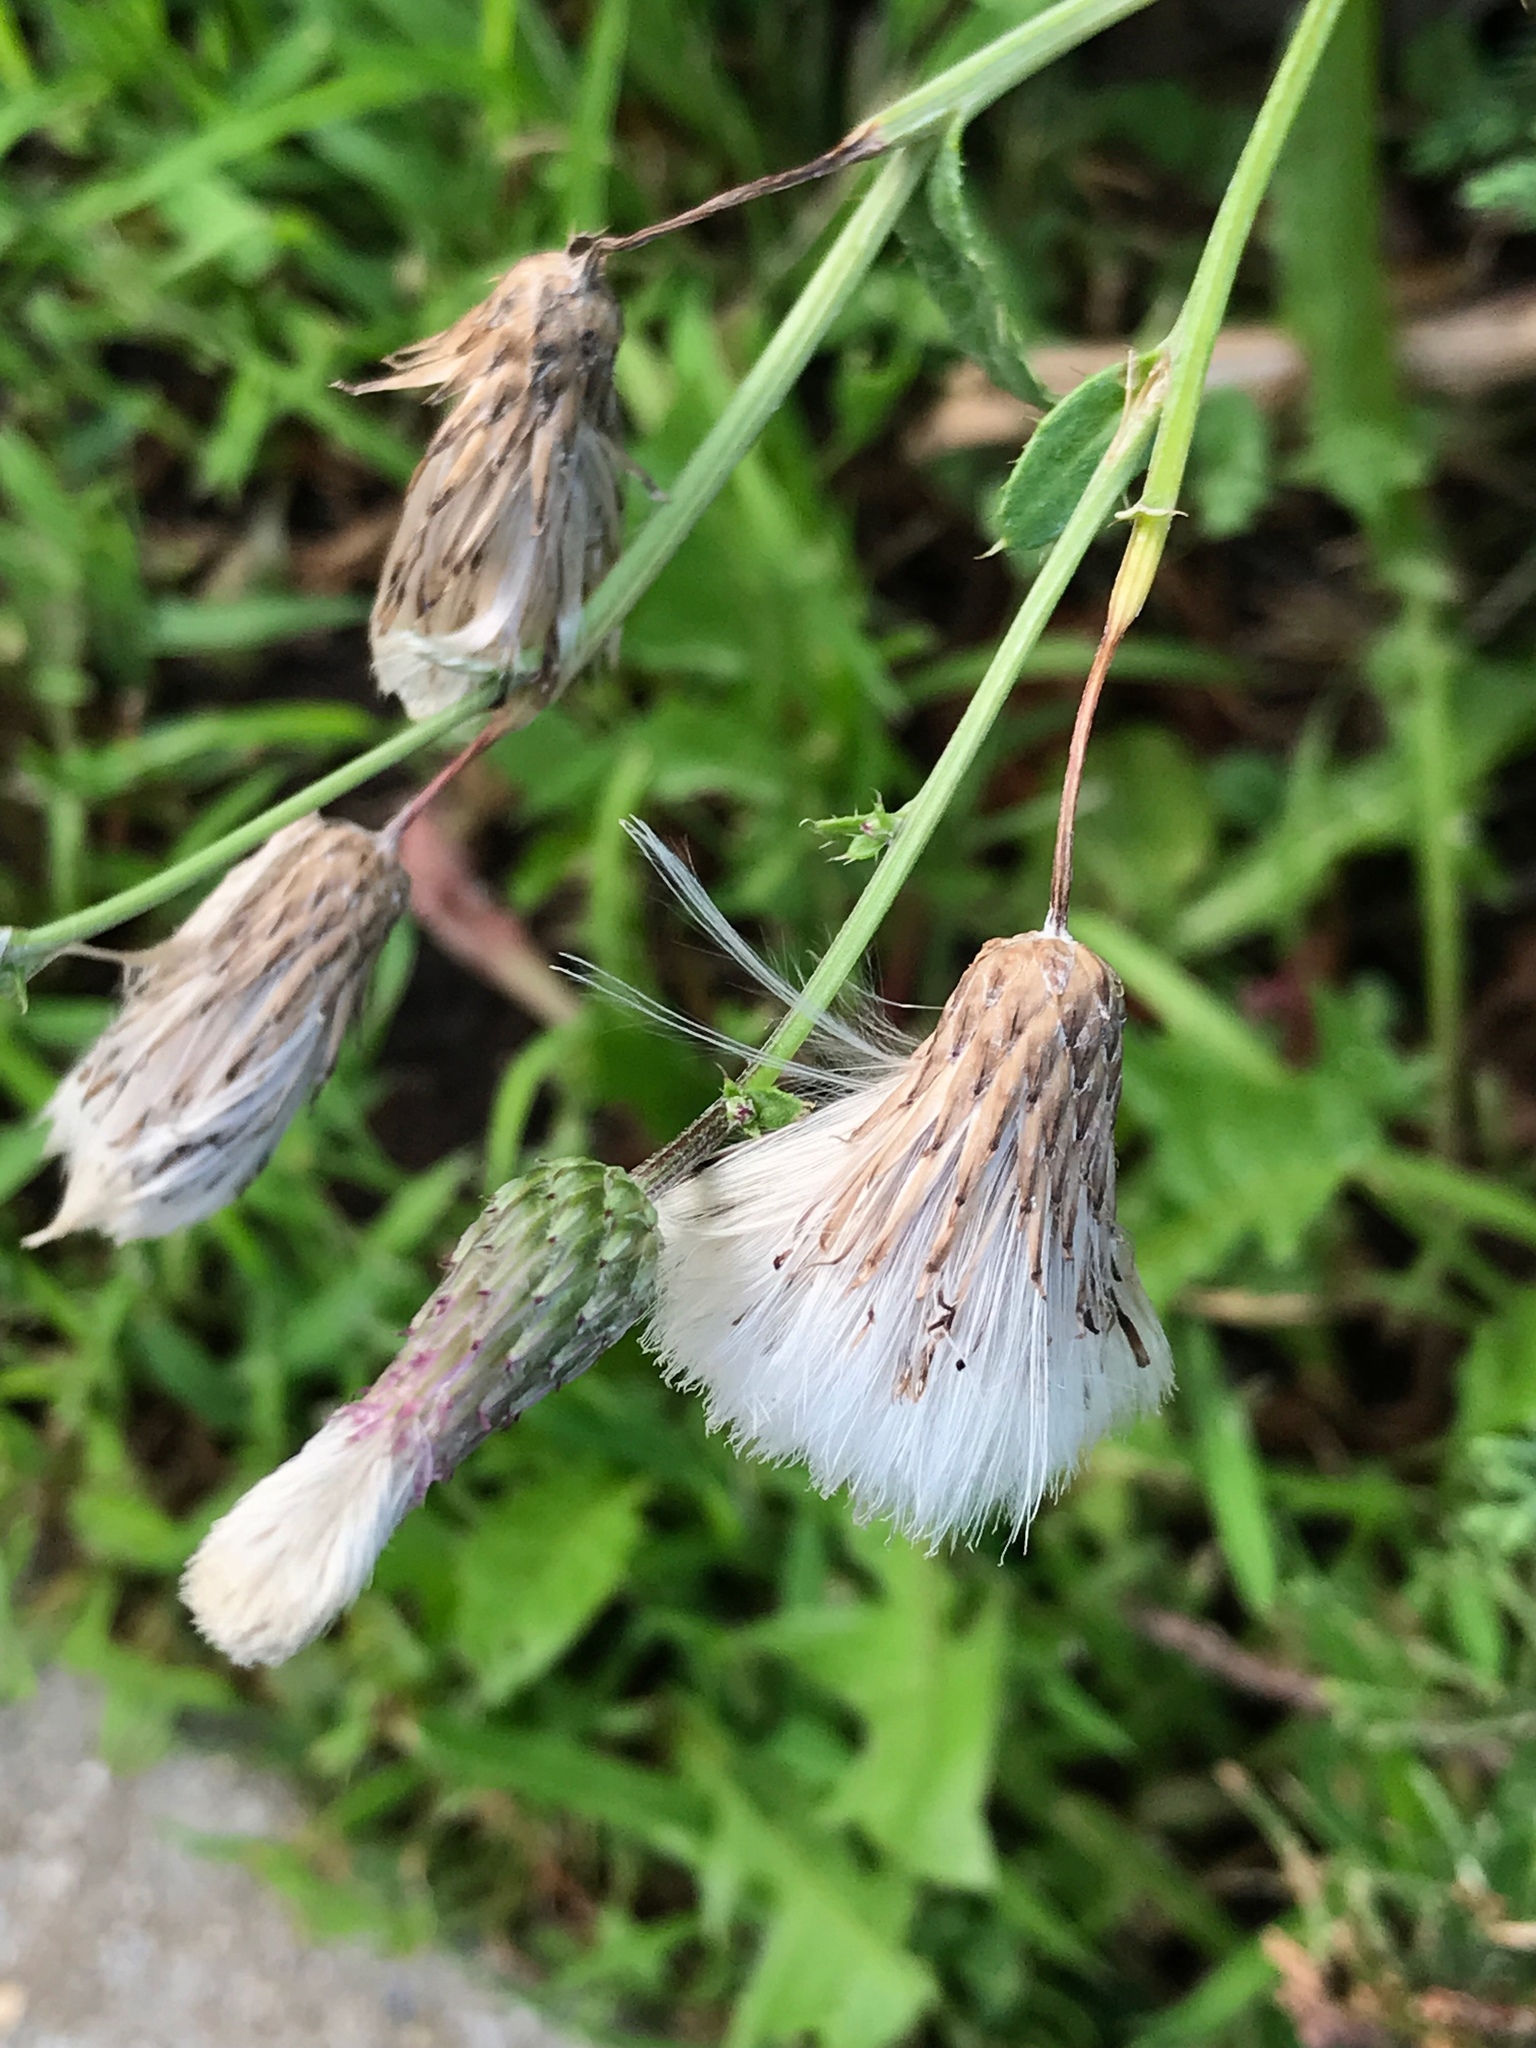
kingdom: Plantae
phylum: Tracheophyta
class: Magnoliopsida
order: Asterales
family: Asteraceae
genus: Cirsium
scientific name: Cirsium arvense
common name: Creeping thistle
